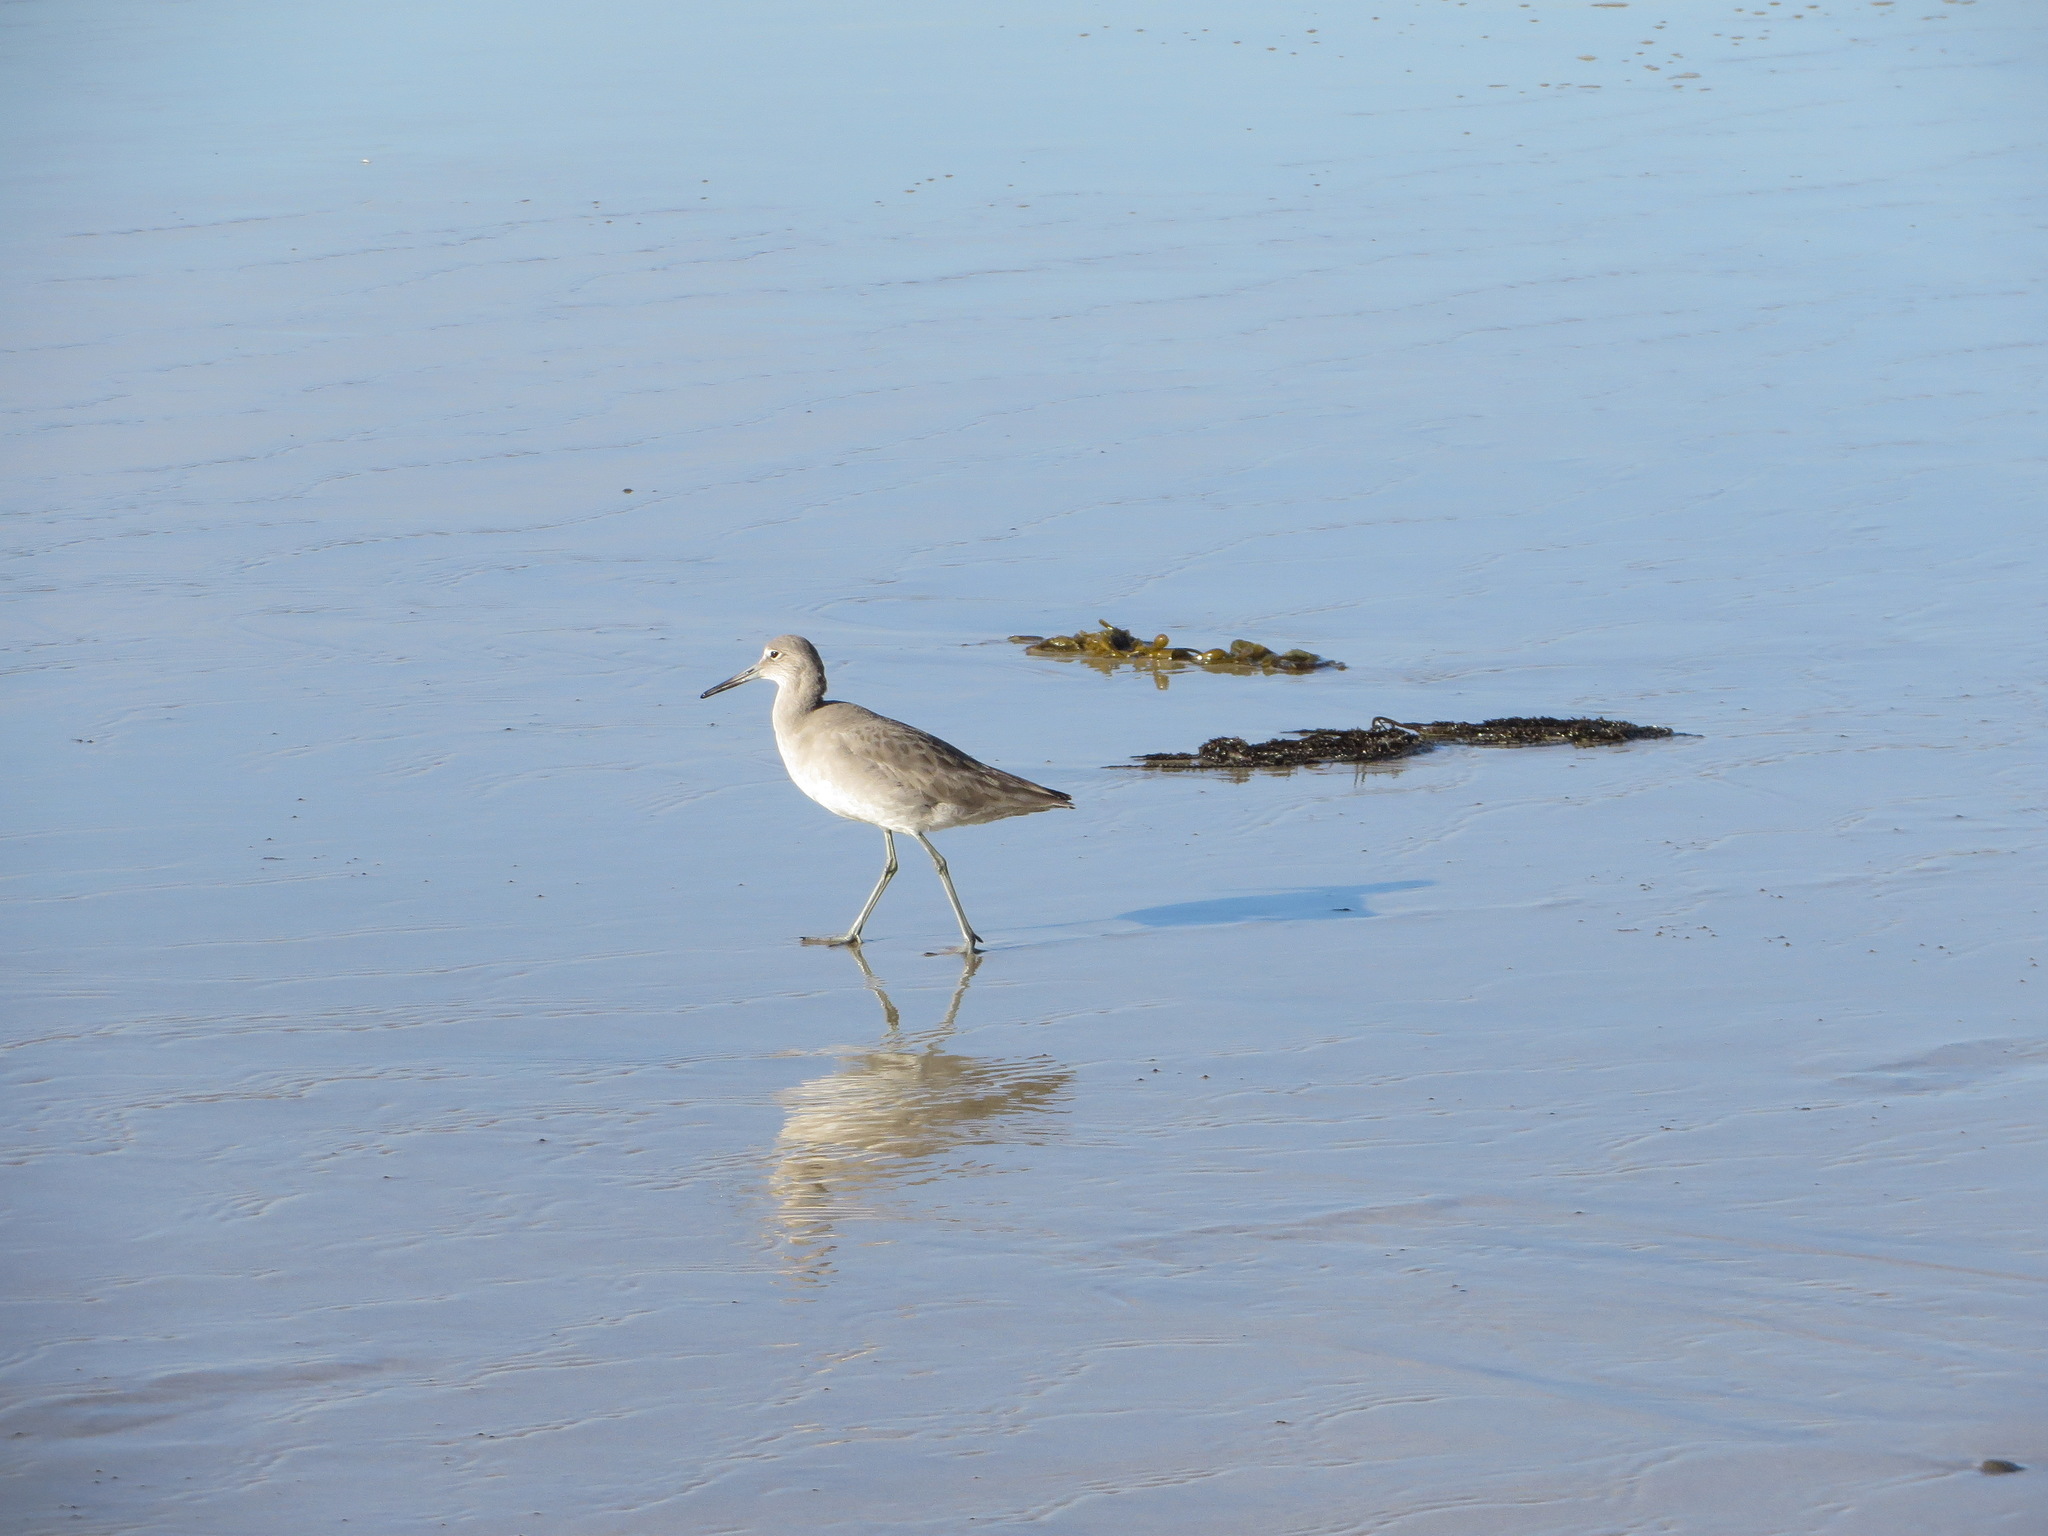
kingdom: Animalia
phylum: Chordata
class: Aves
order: Charadriiformes
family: Scolopacidae
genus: Tringa
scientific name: Tringa semipalmata
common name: Willet
